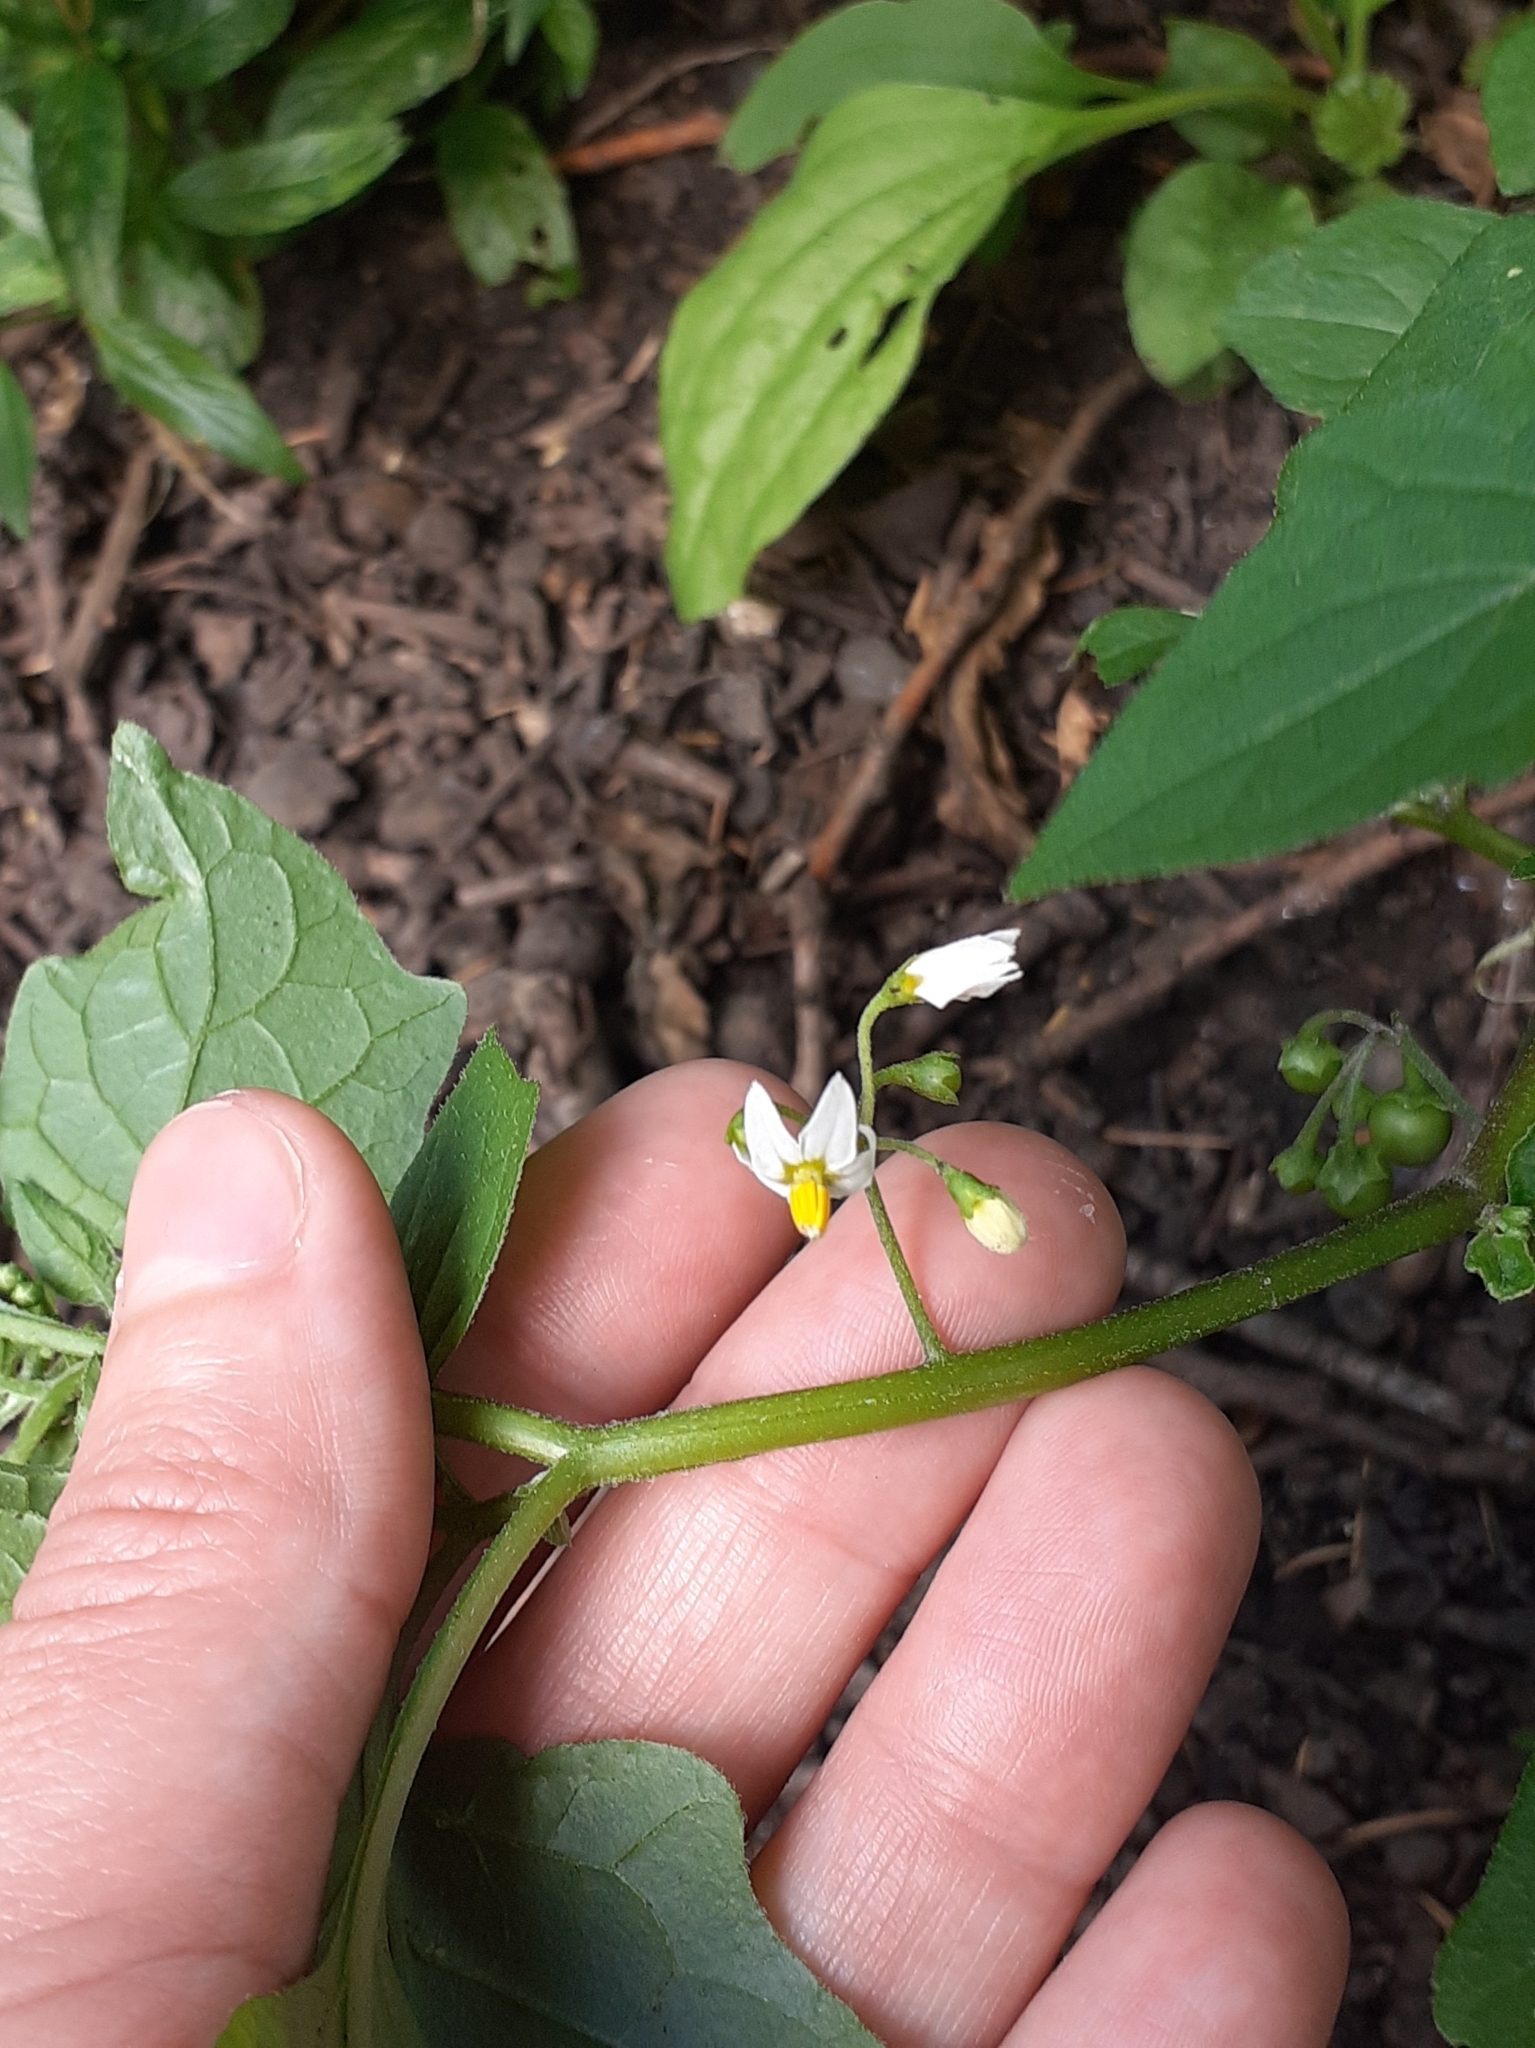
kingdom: Plantae
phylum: Tracheophyta
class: Magnoliopsida
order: Solanales
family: Solanaceae
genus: Solanum
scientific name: Solanum nigrum
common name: Black nightshade
